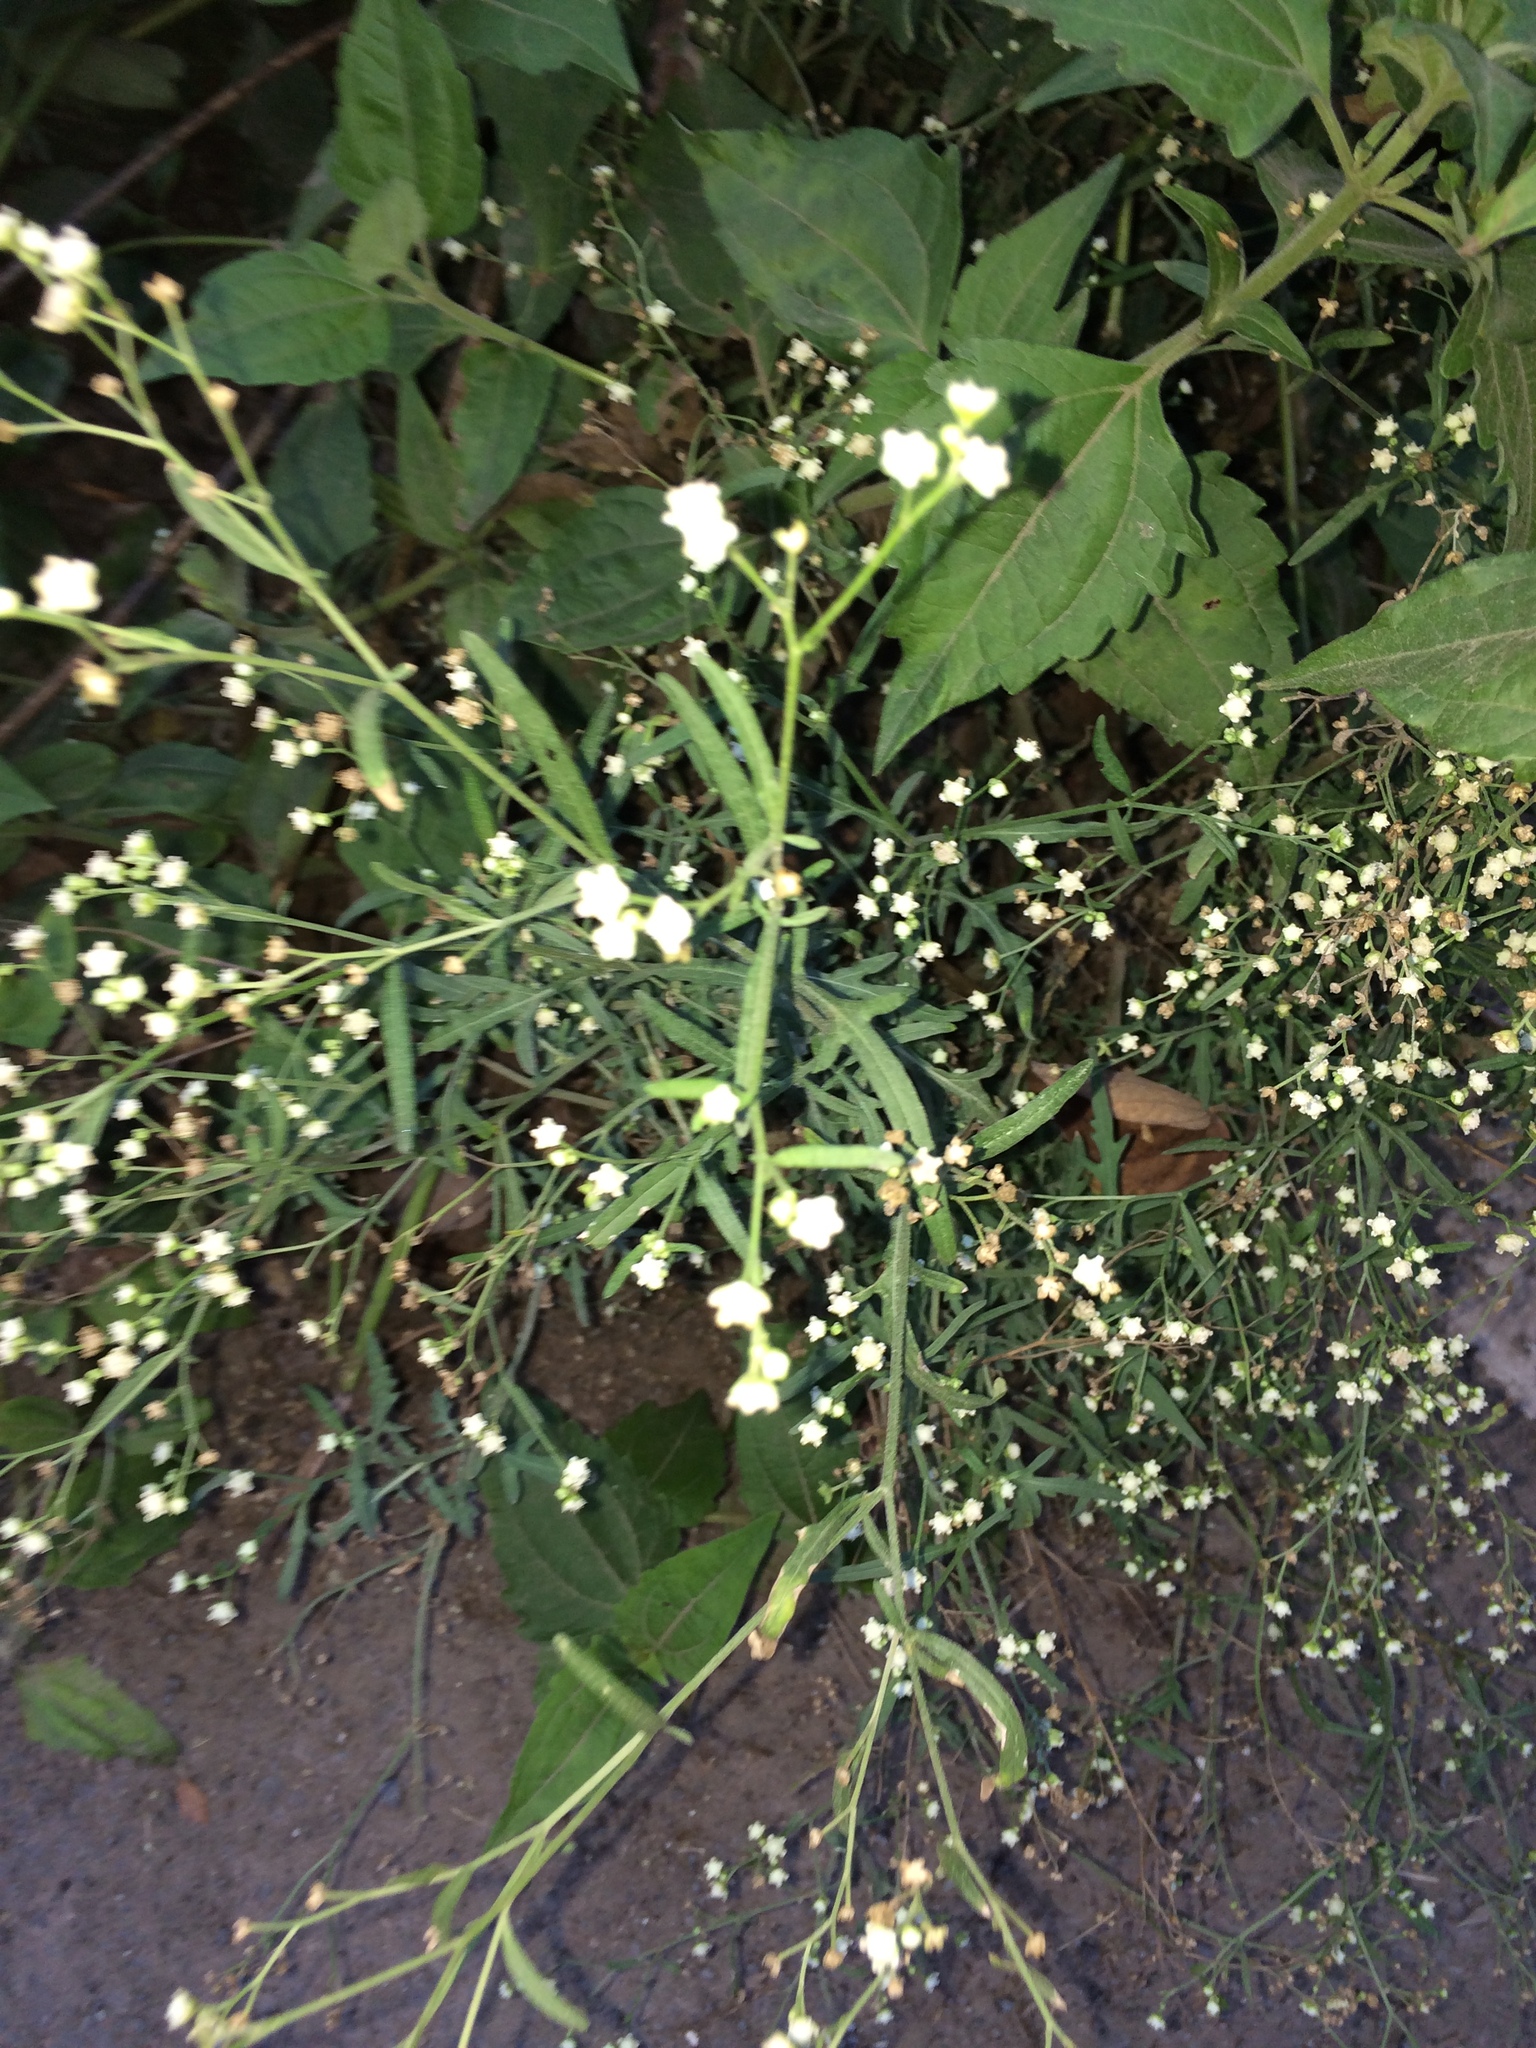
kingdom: Plantae
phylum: Tracheophyta
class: Magnoliopsida
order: Asterales
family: Asteraceae
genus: Parthenium
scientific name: Parthenium hysterophorus
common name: Santa maria feverfew
